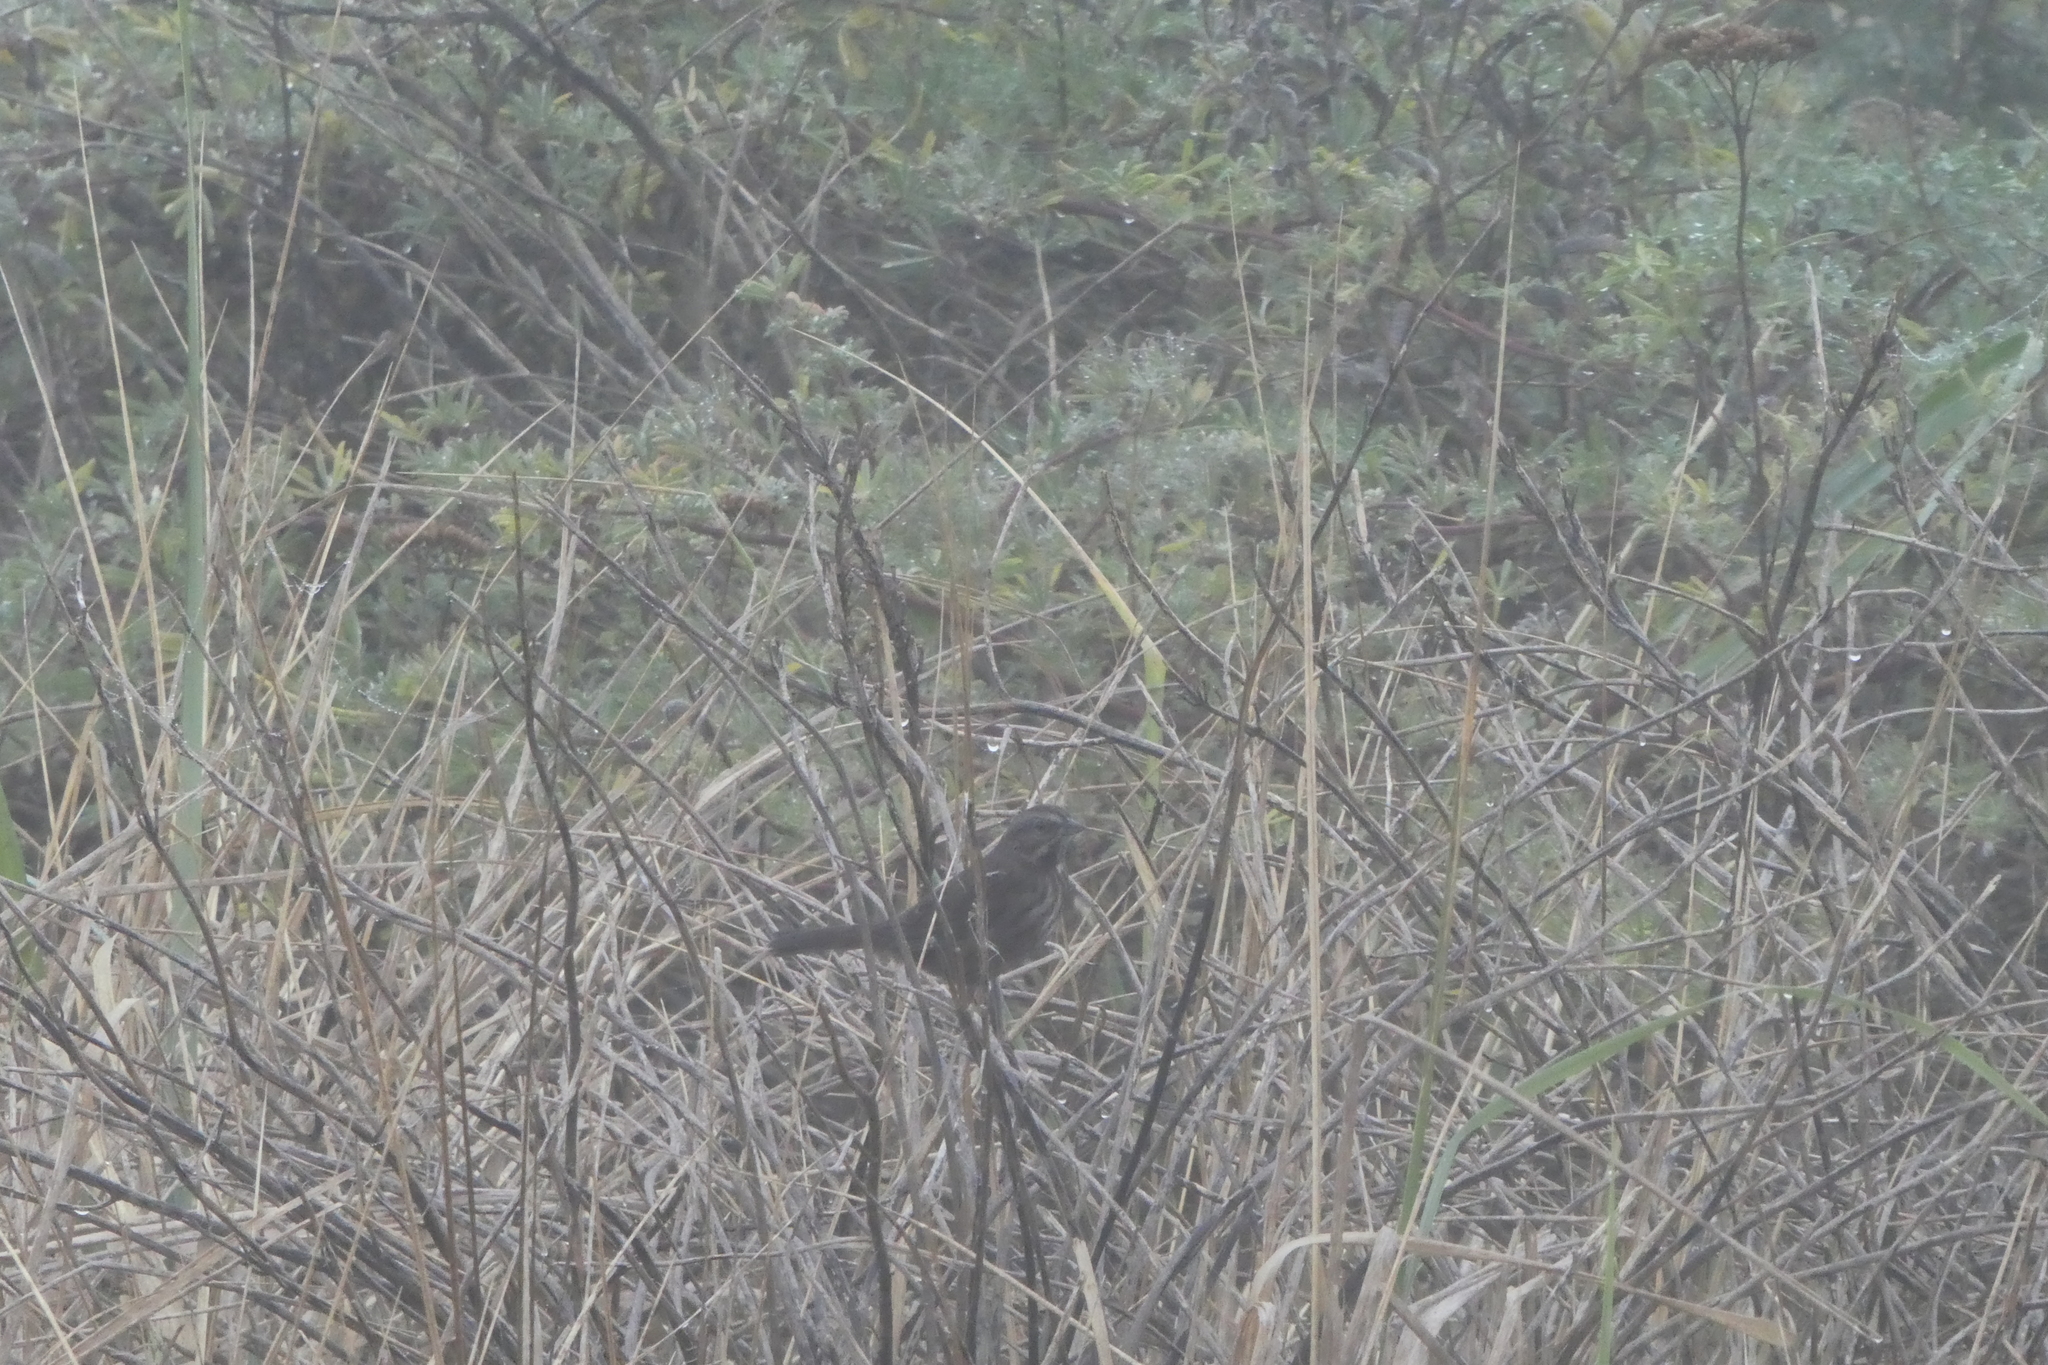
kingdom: Animalia
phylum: Chordata
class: Aves
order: Passeriformes
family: Passerellidae
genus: Melospiza
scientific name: Melospiza melodia
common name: Song sparrow
